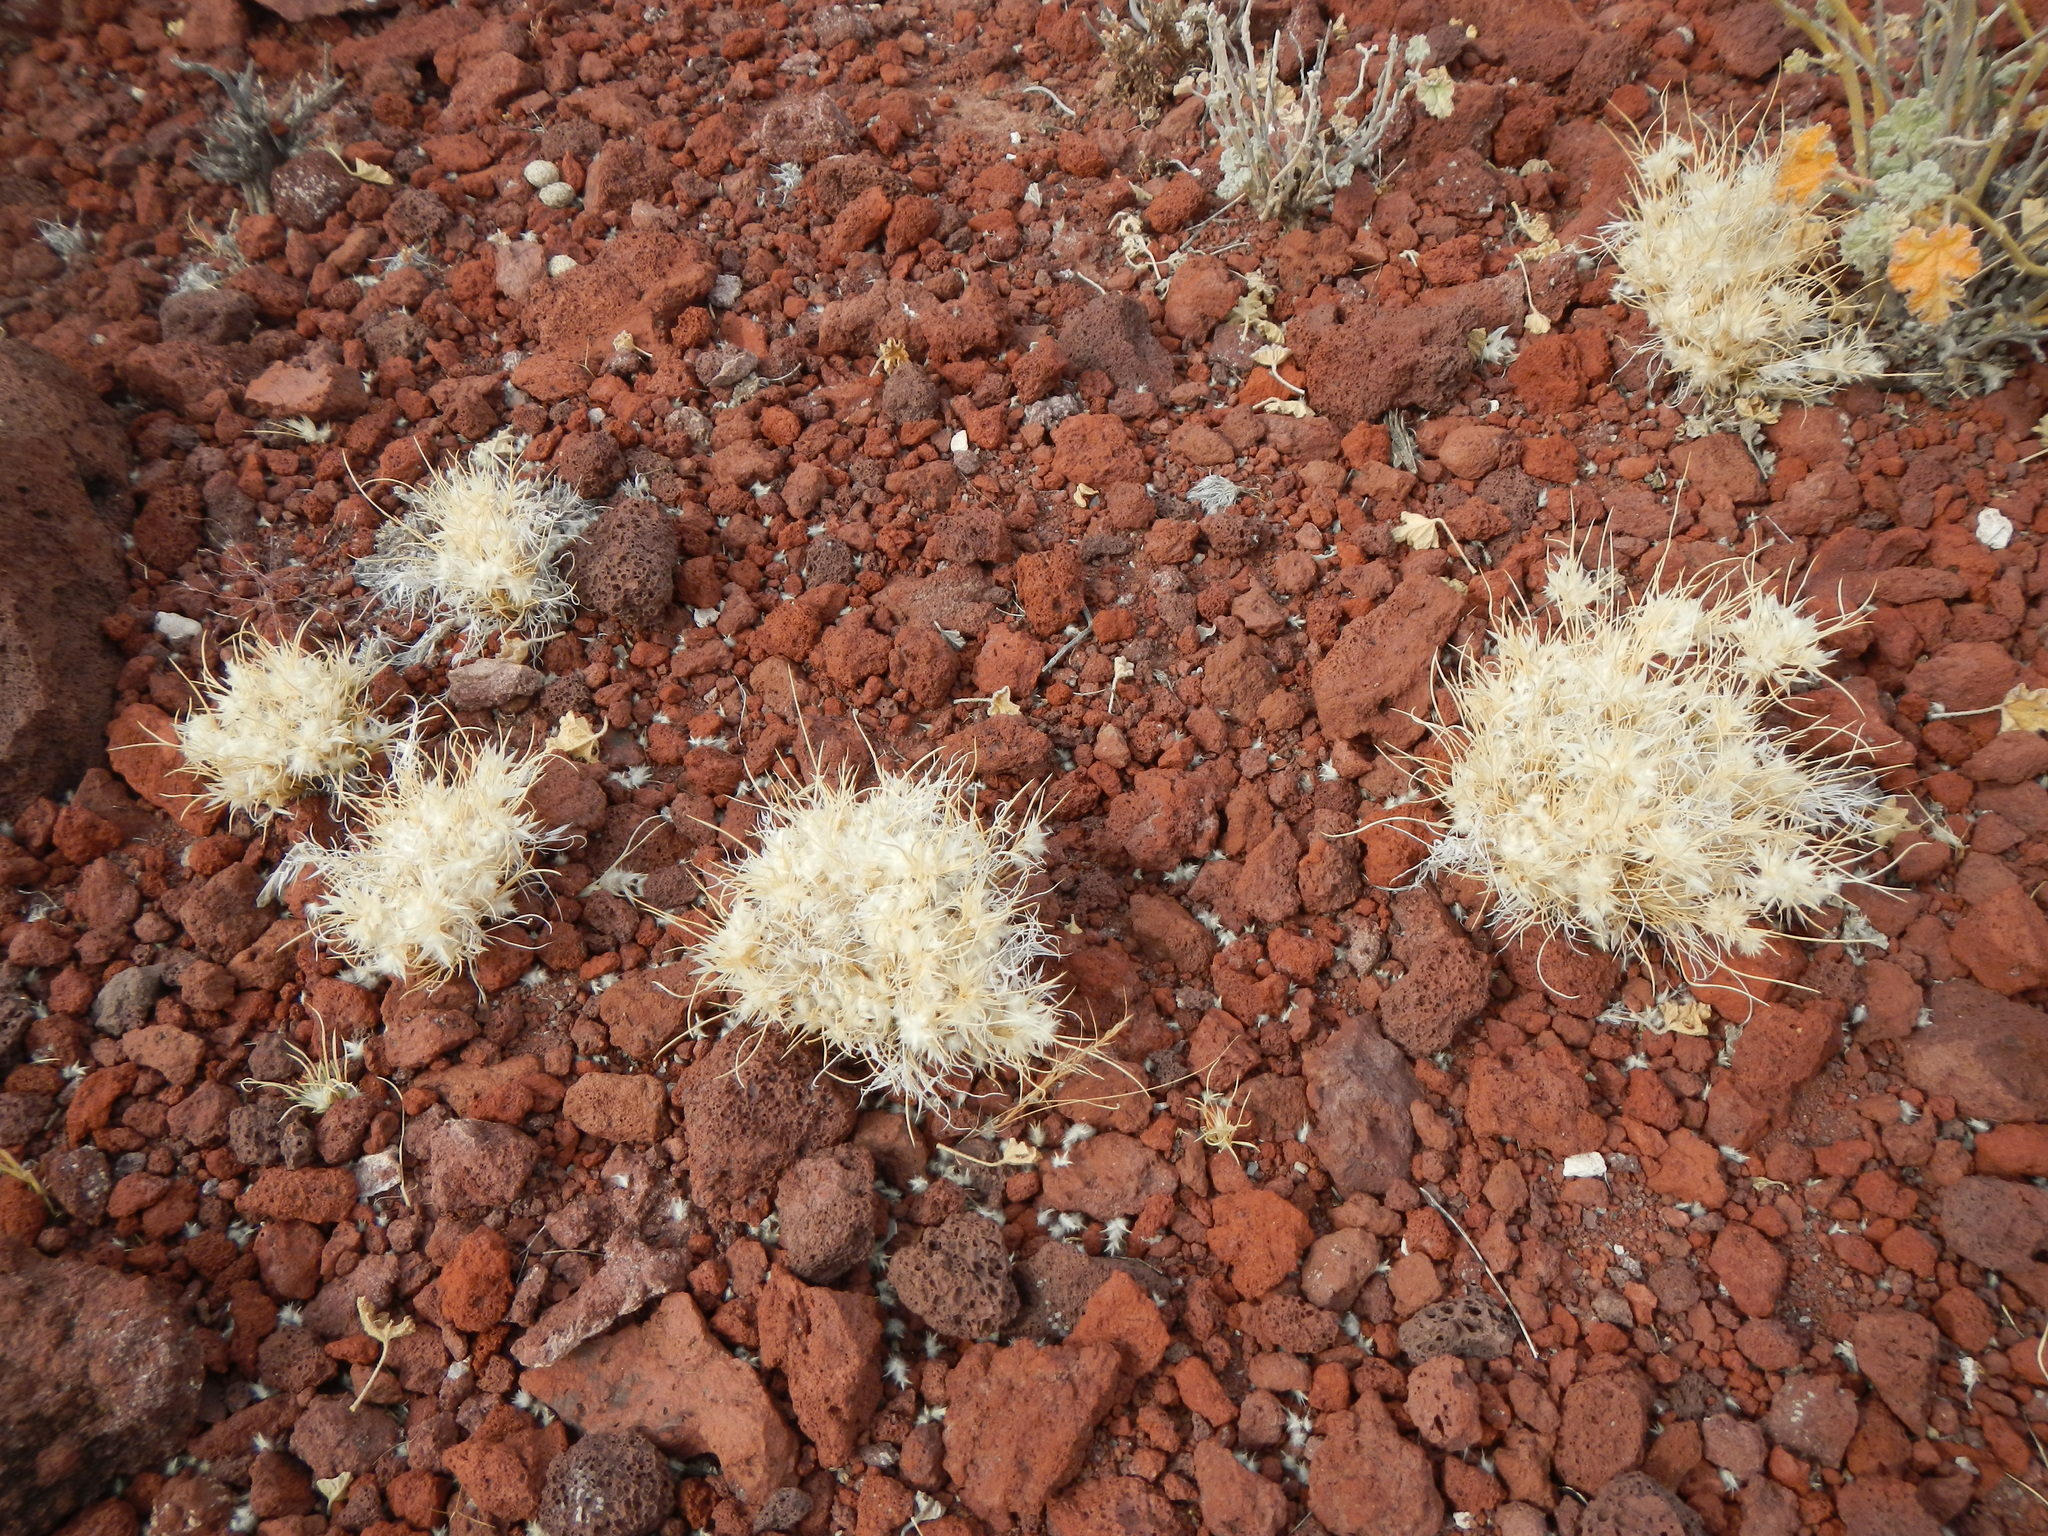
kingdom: Plantae
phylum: Tracheophyta
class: Liliopsida
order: Poales
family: Poaceae
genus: Dasyochloa
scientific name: Dasyochloa pulchella
